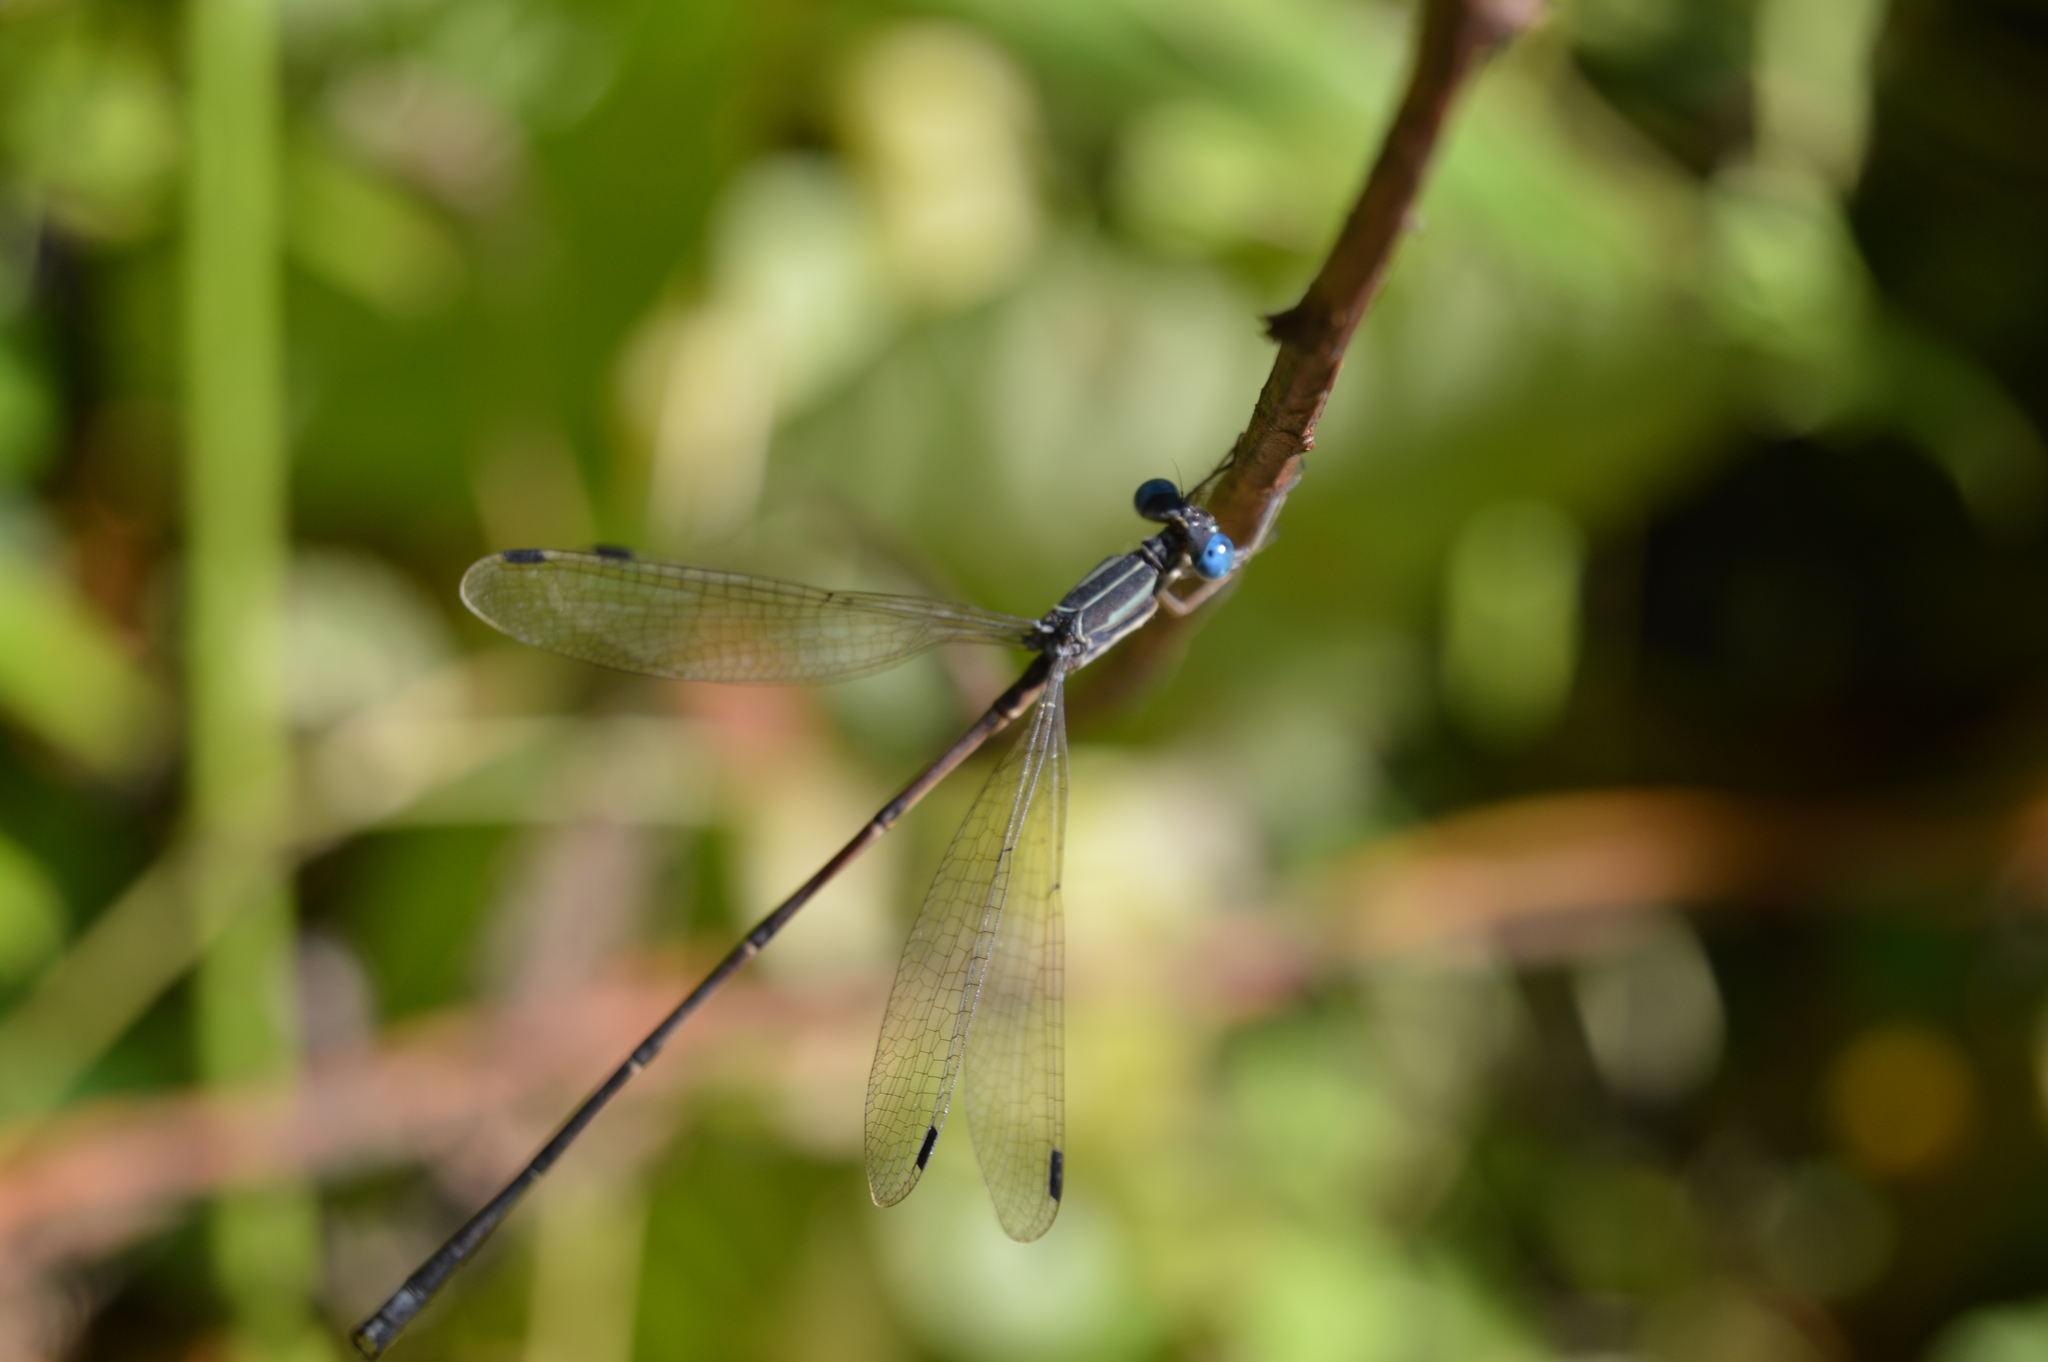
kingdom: Animalia
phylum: Arthropoda
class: Insecta
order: Odonata
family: Lestidae
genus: Lestes
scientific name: Lestes rectangularis
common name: Slender spreadwing
